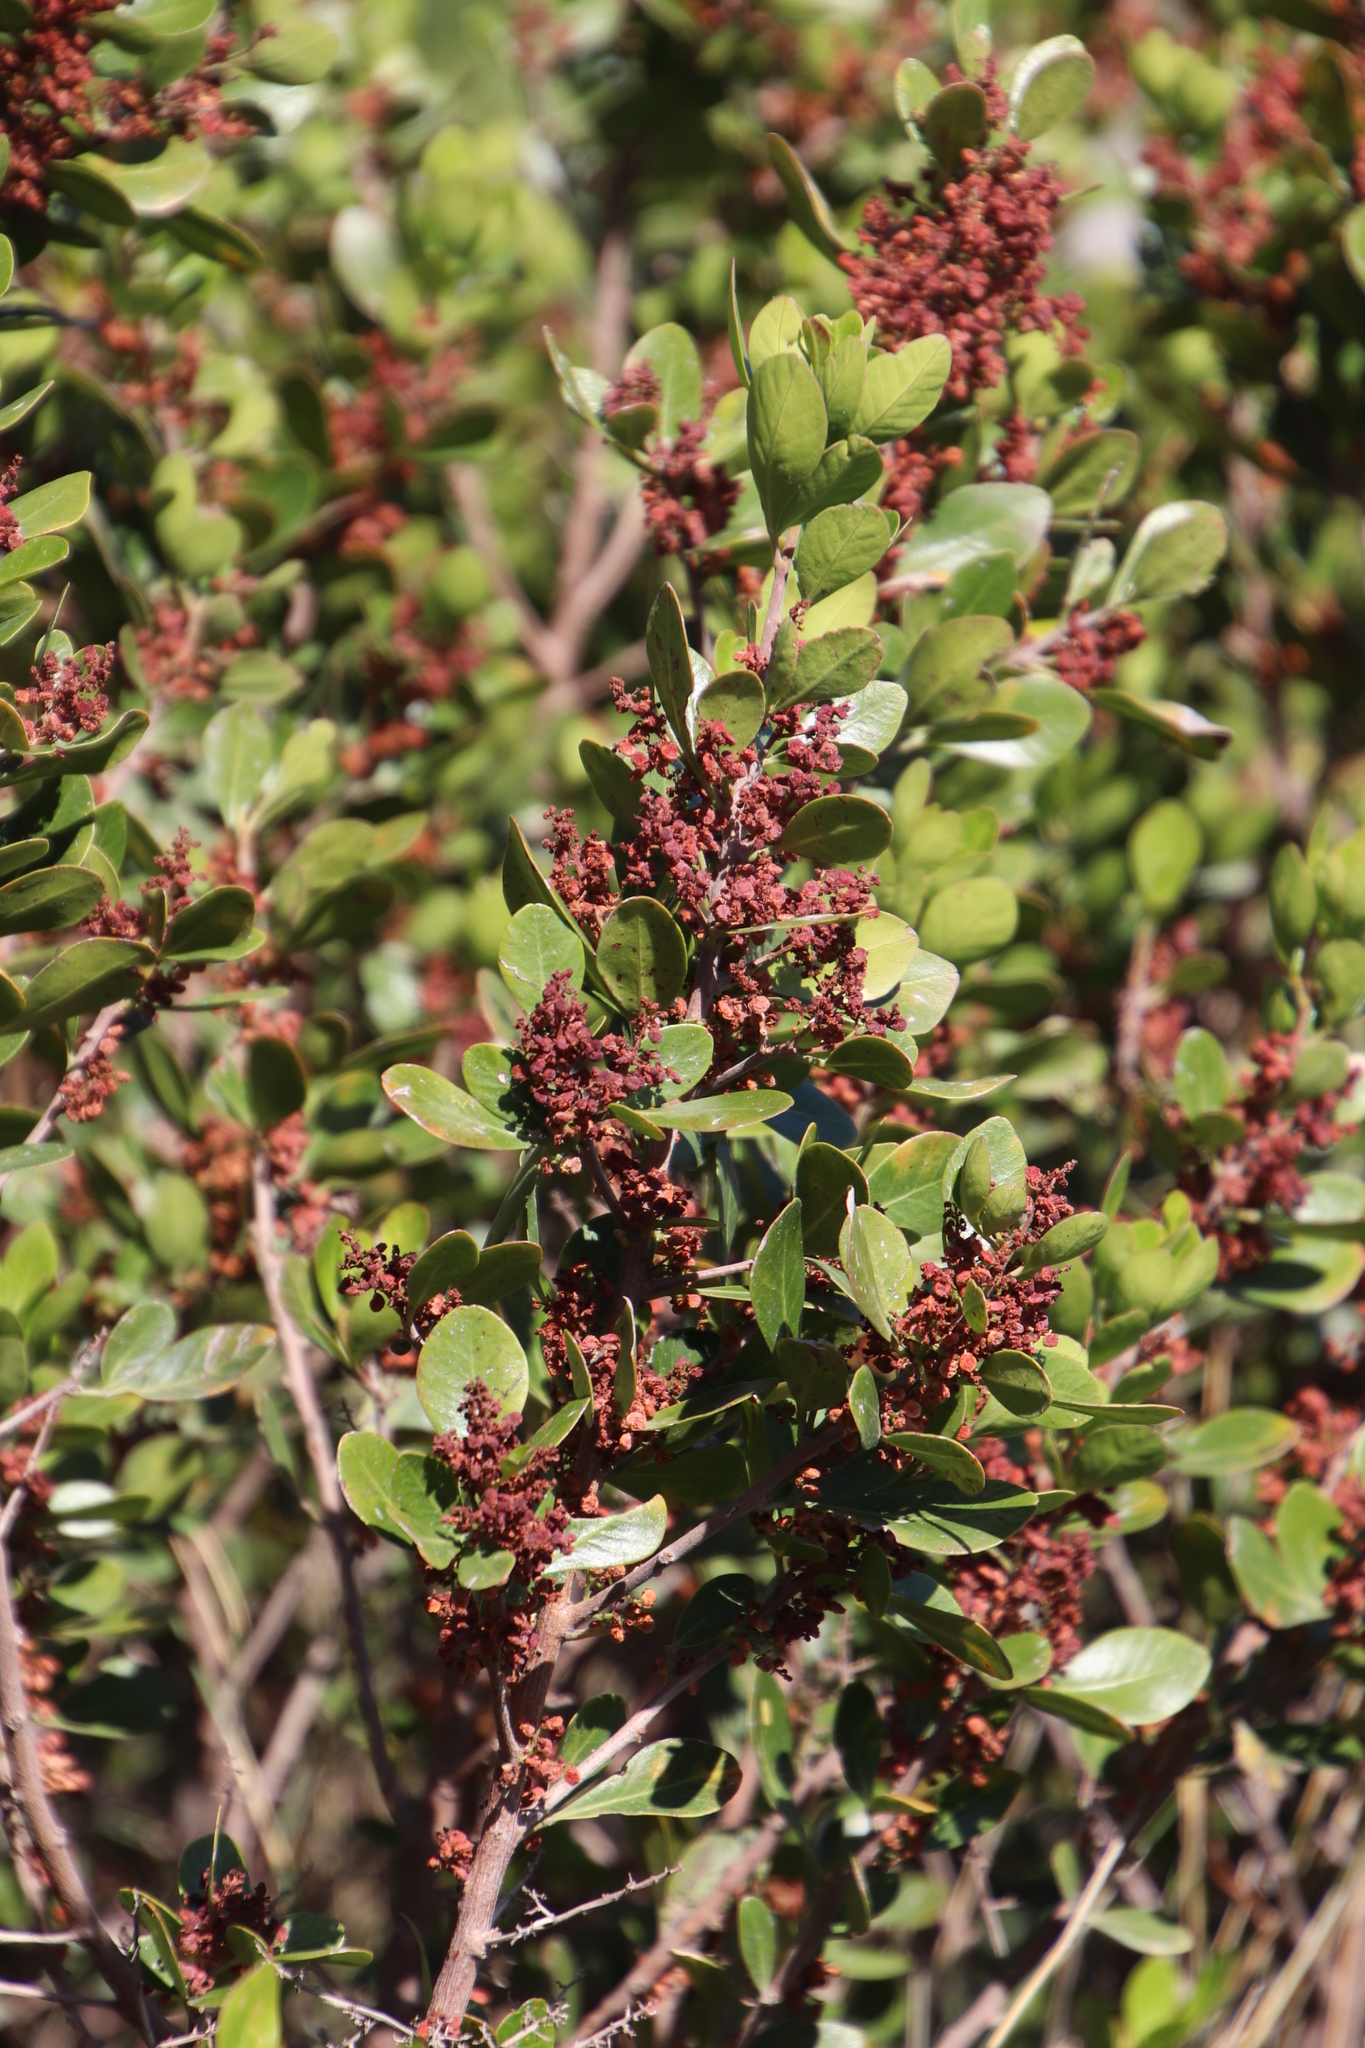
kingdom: Plantae
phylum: Tracheophyta
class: Magnoliopsida
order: Sapindales
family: Anacardiaceae
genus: Searsia
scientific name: Searsia lucida
